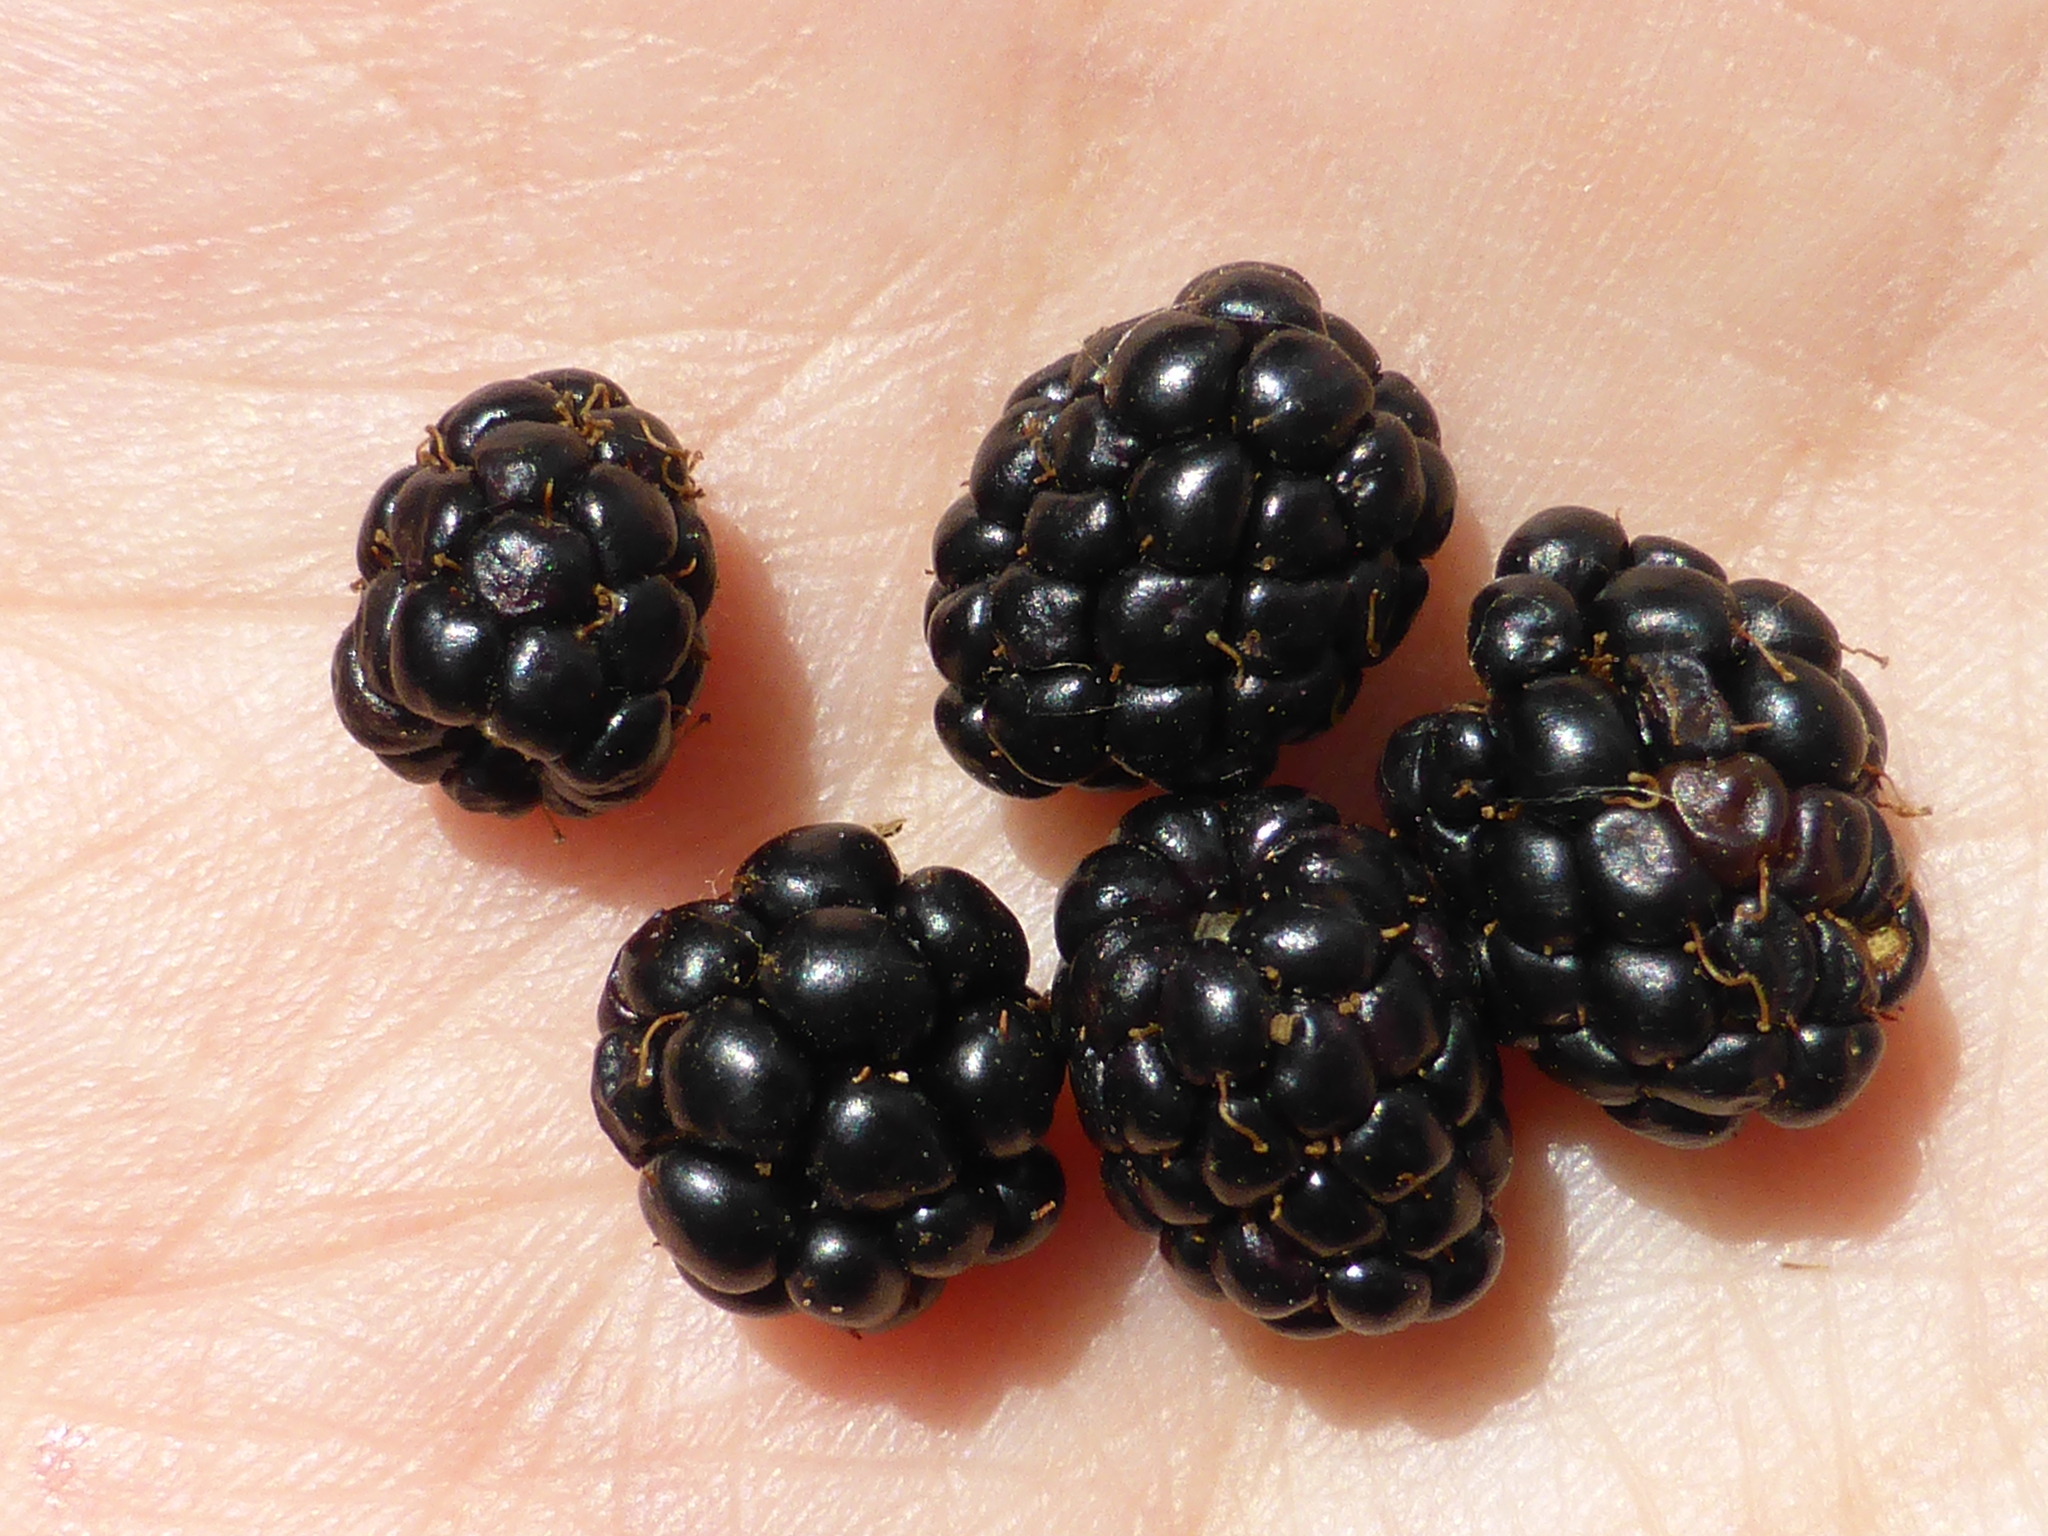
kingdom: Plantae
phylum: Tracheophyta
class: Magnoliopsida
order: Rosales
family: Rosaceae
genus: Rubus
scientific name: Rubus allegheniensis
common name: Allegheny blackberry
